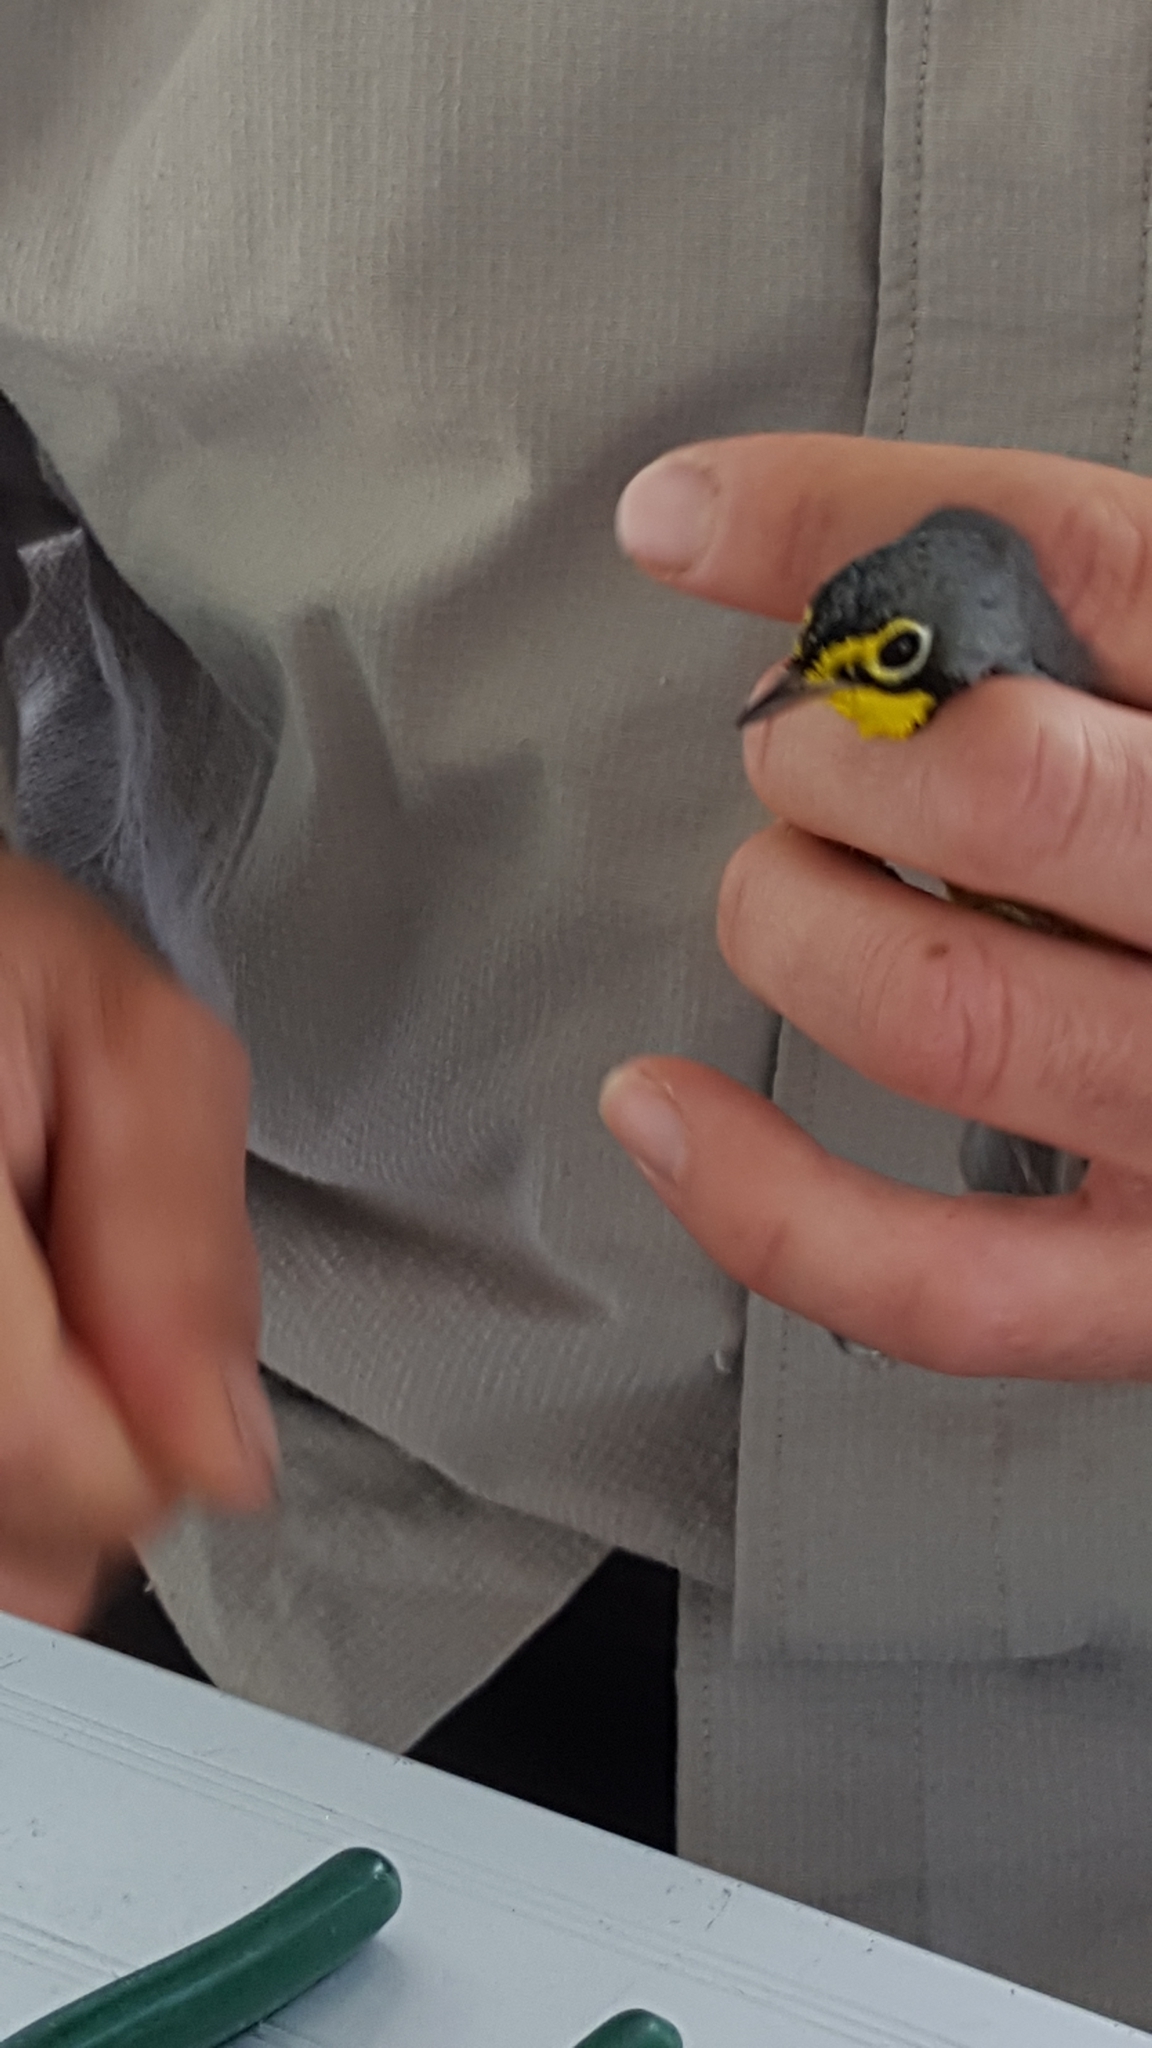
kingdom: Animalia
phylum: Chordata
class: Aves
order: Passeriformes
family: Parulidae
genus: Cardellina
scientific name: Cardellina canadensis
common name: Canada warbler
